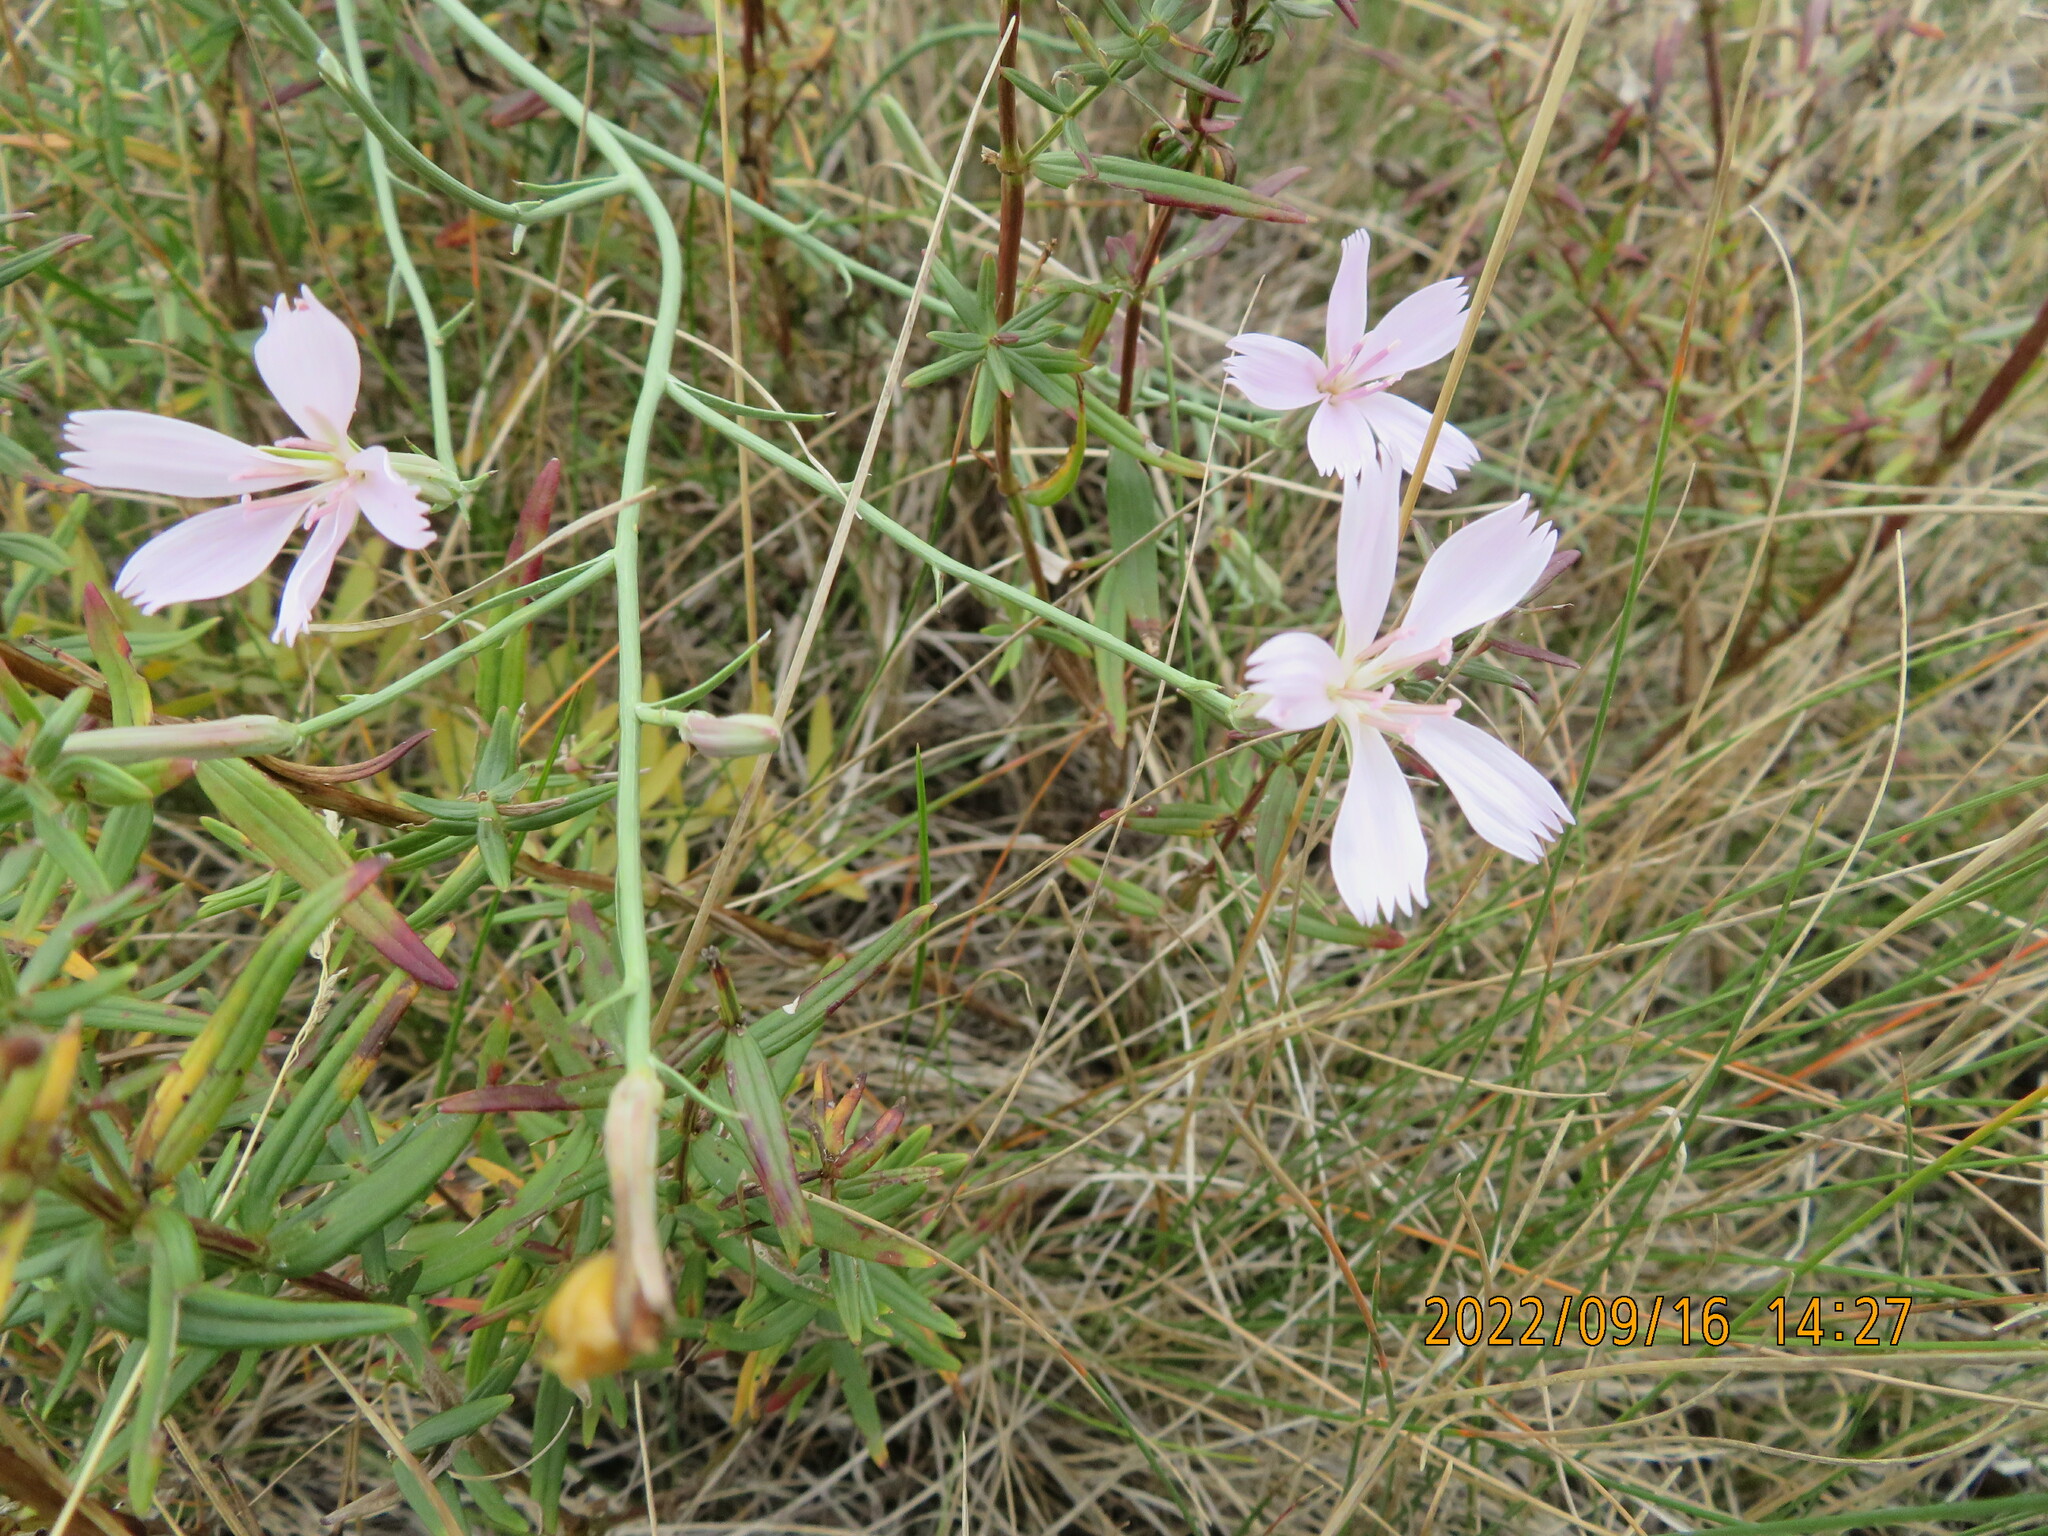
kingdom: Plantae
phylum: Tracheophyta
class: Magnoliopsida
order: Asterales
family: Asteraceae
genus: Lygodesmia
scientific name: Lygodesmia juncea
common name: Common skeletonweed
